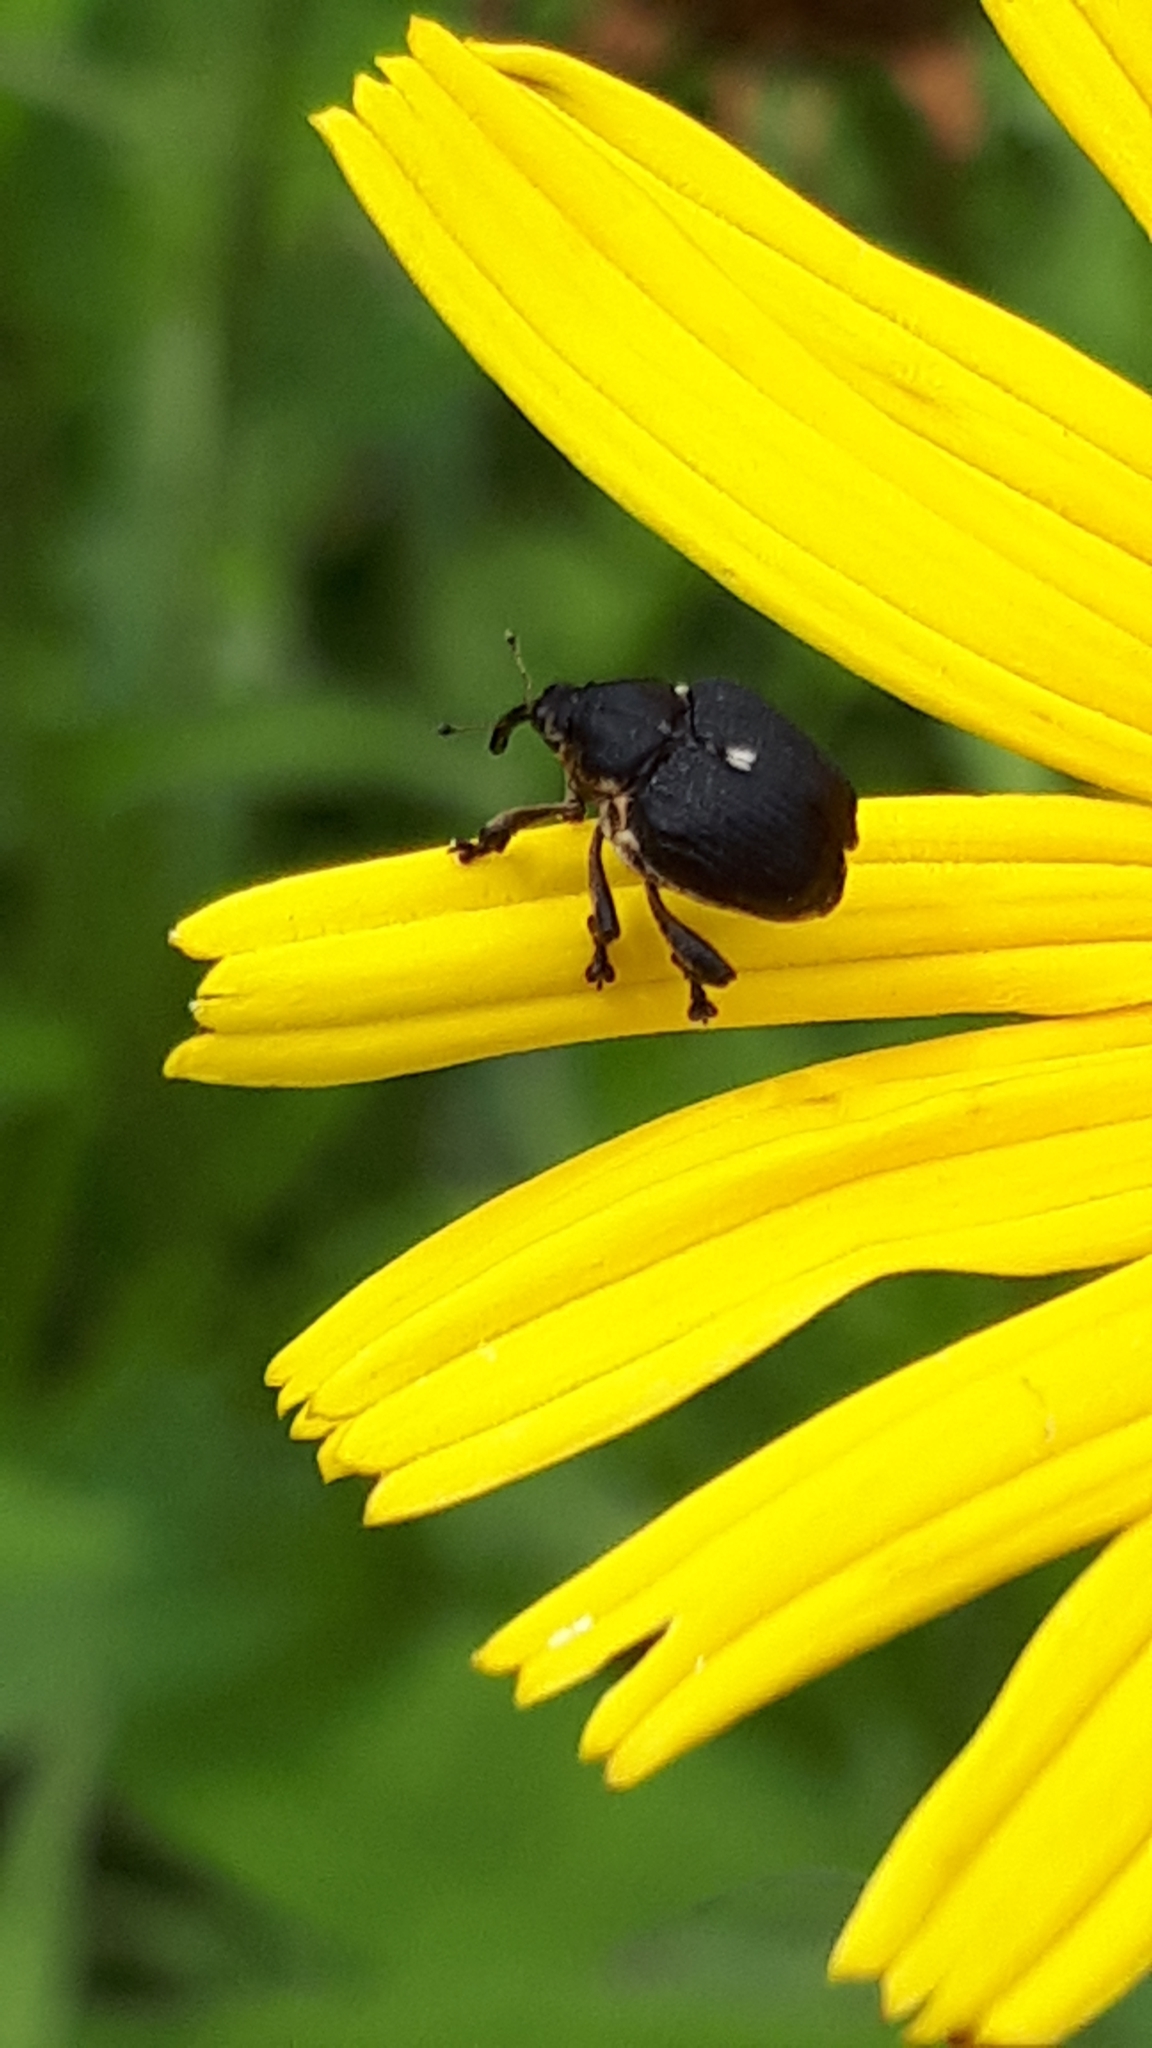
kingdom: Animalia
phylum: Arthropoda
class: Insecta
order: Coleoptera
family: Curculionidae
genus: Mononychus
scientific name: Mononychus punctumalbum
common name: Iris weevil
